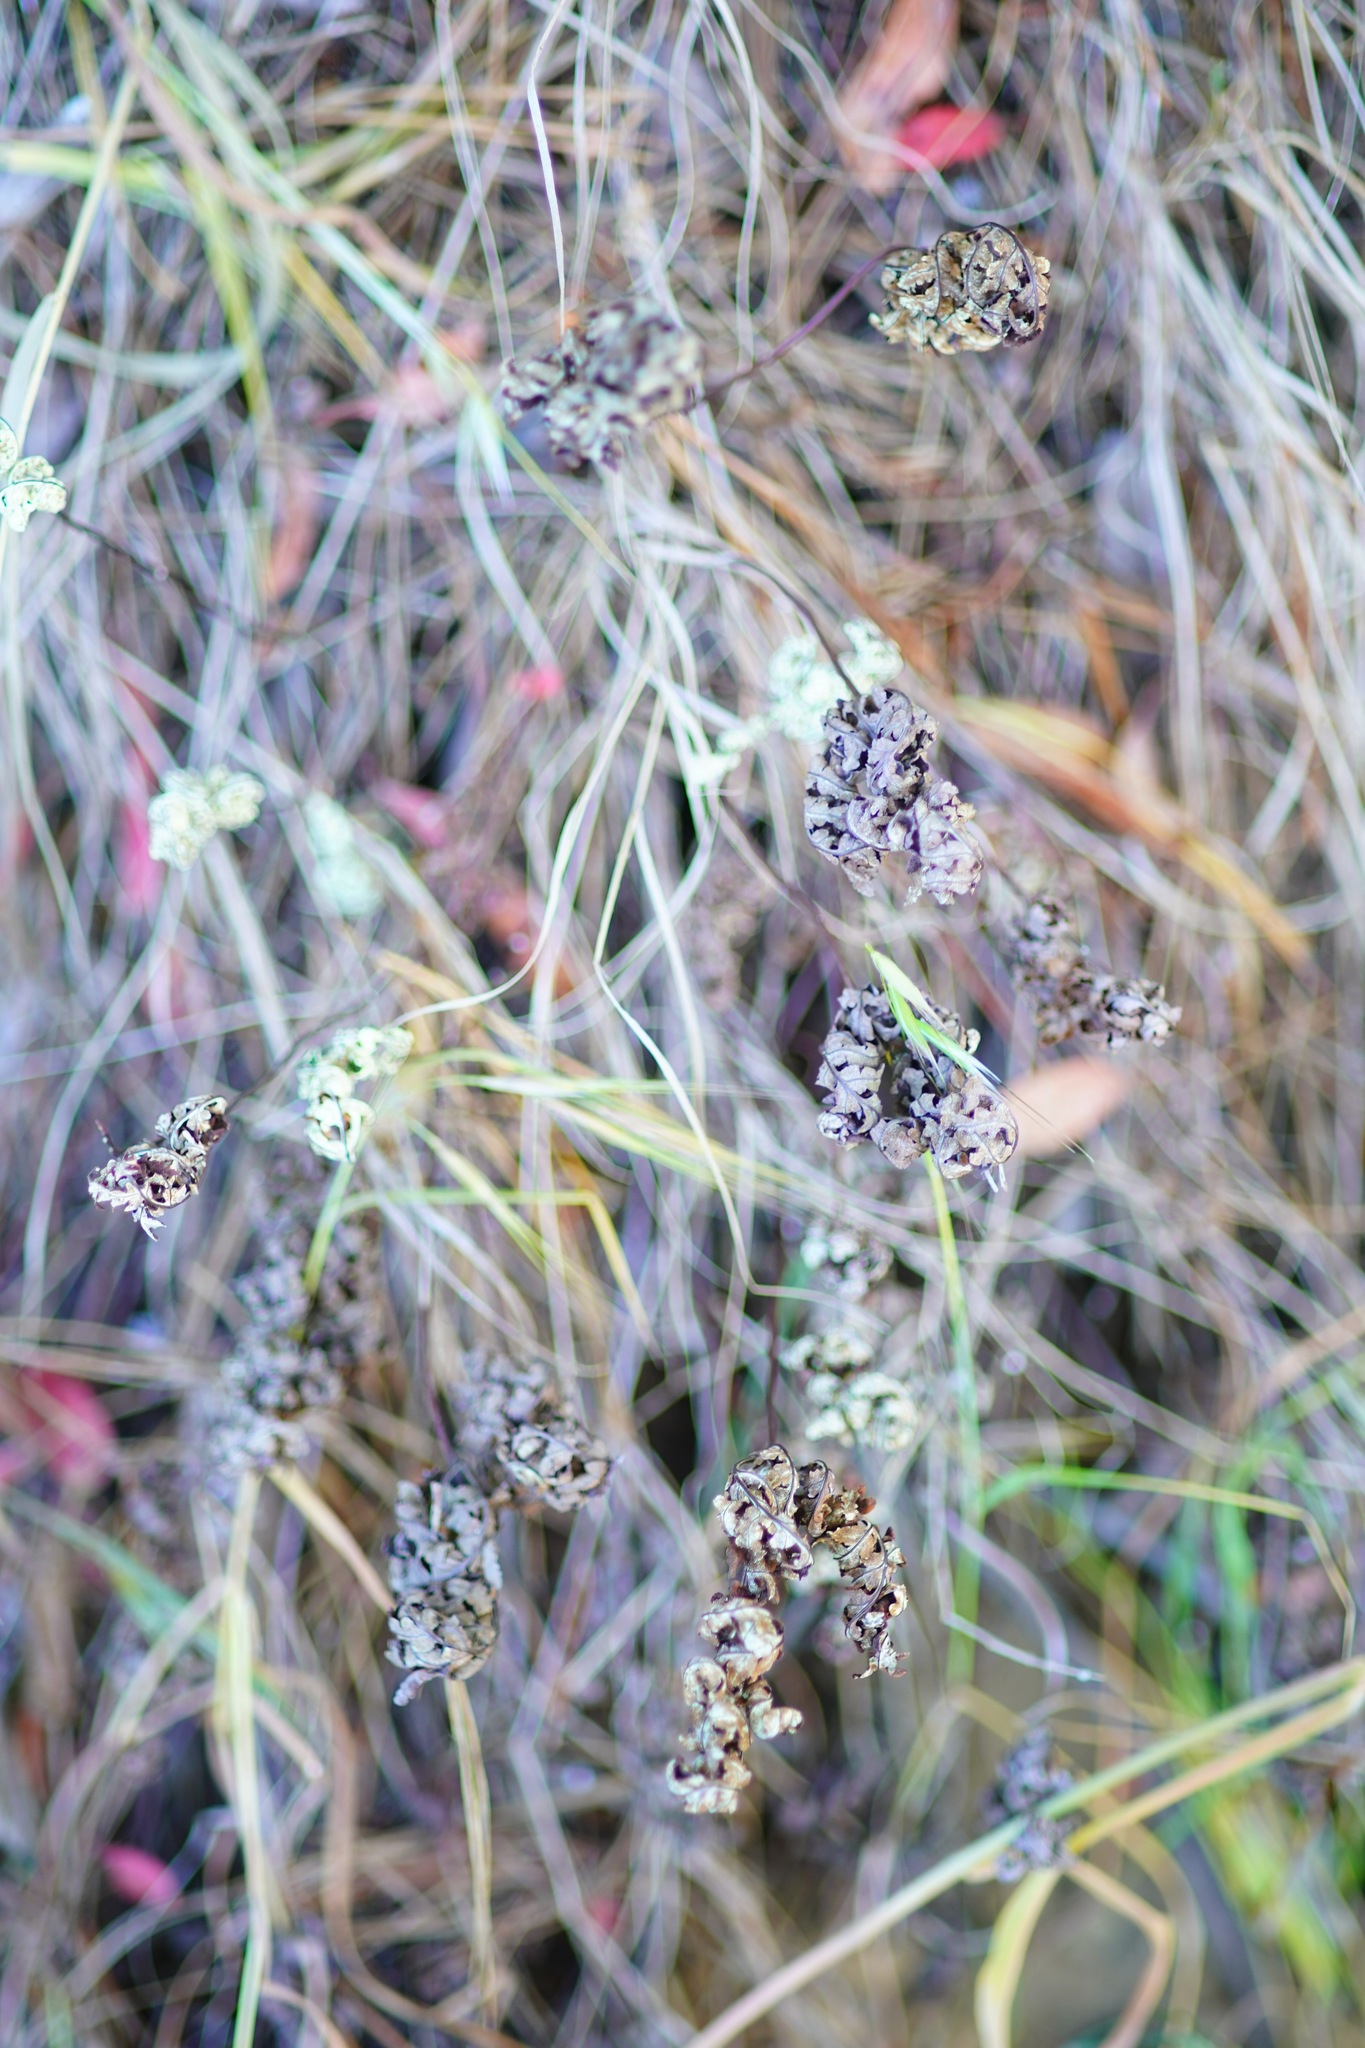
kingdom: Plantae
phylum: Tracheophyta
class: Polypodiopsida
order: Polypodiales
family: Pteridaceae
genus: Pentagramma
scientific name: Pentagramma triangularis
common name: Gold fern
